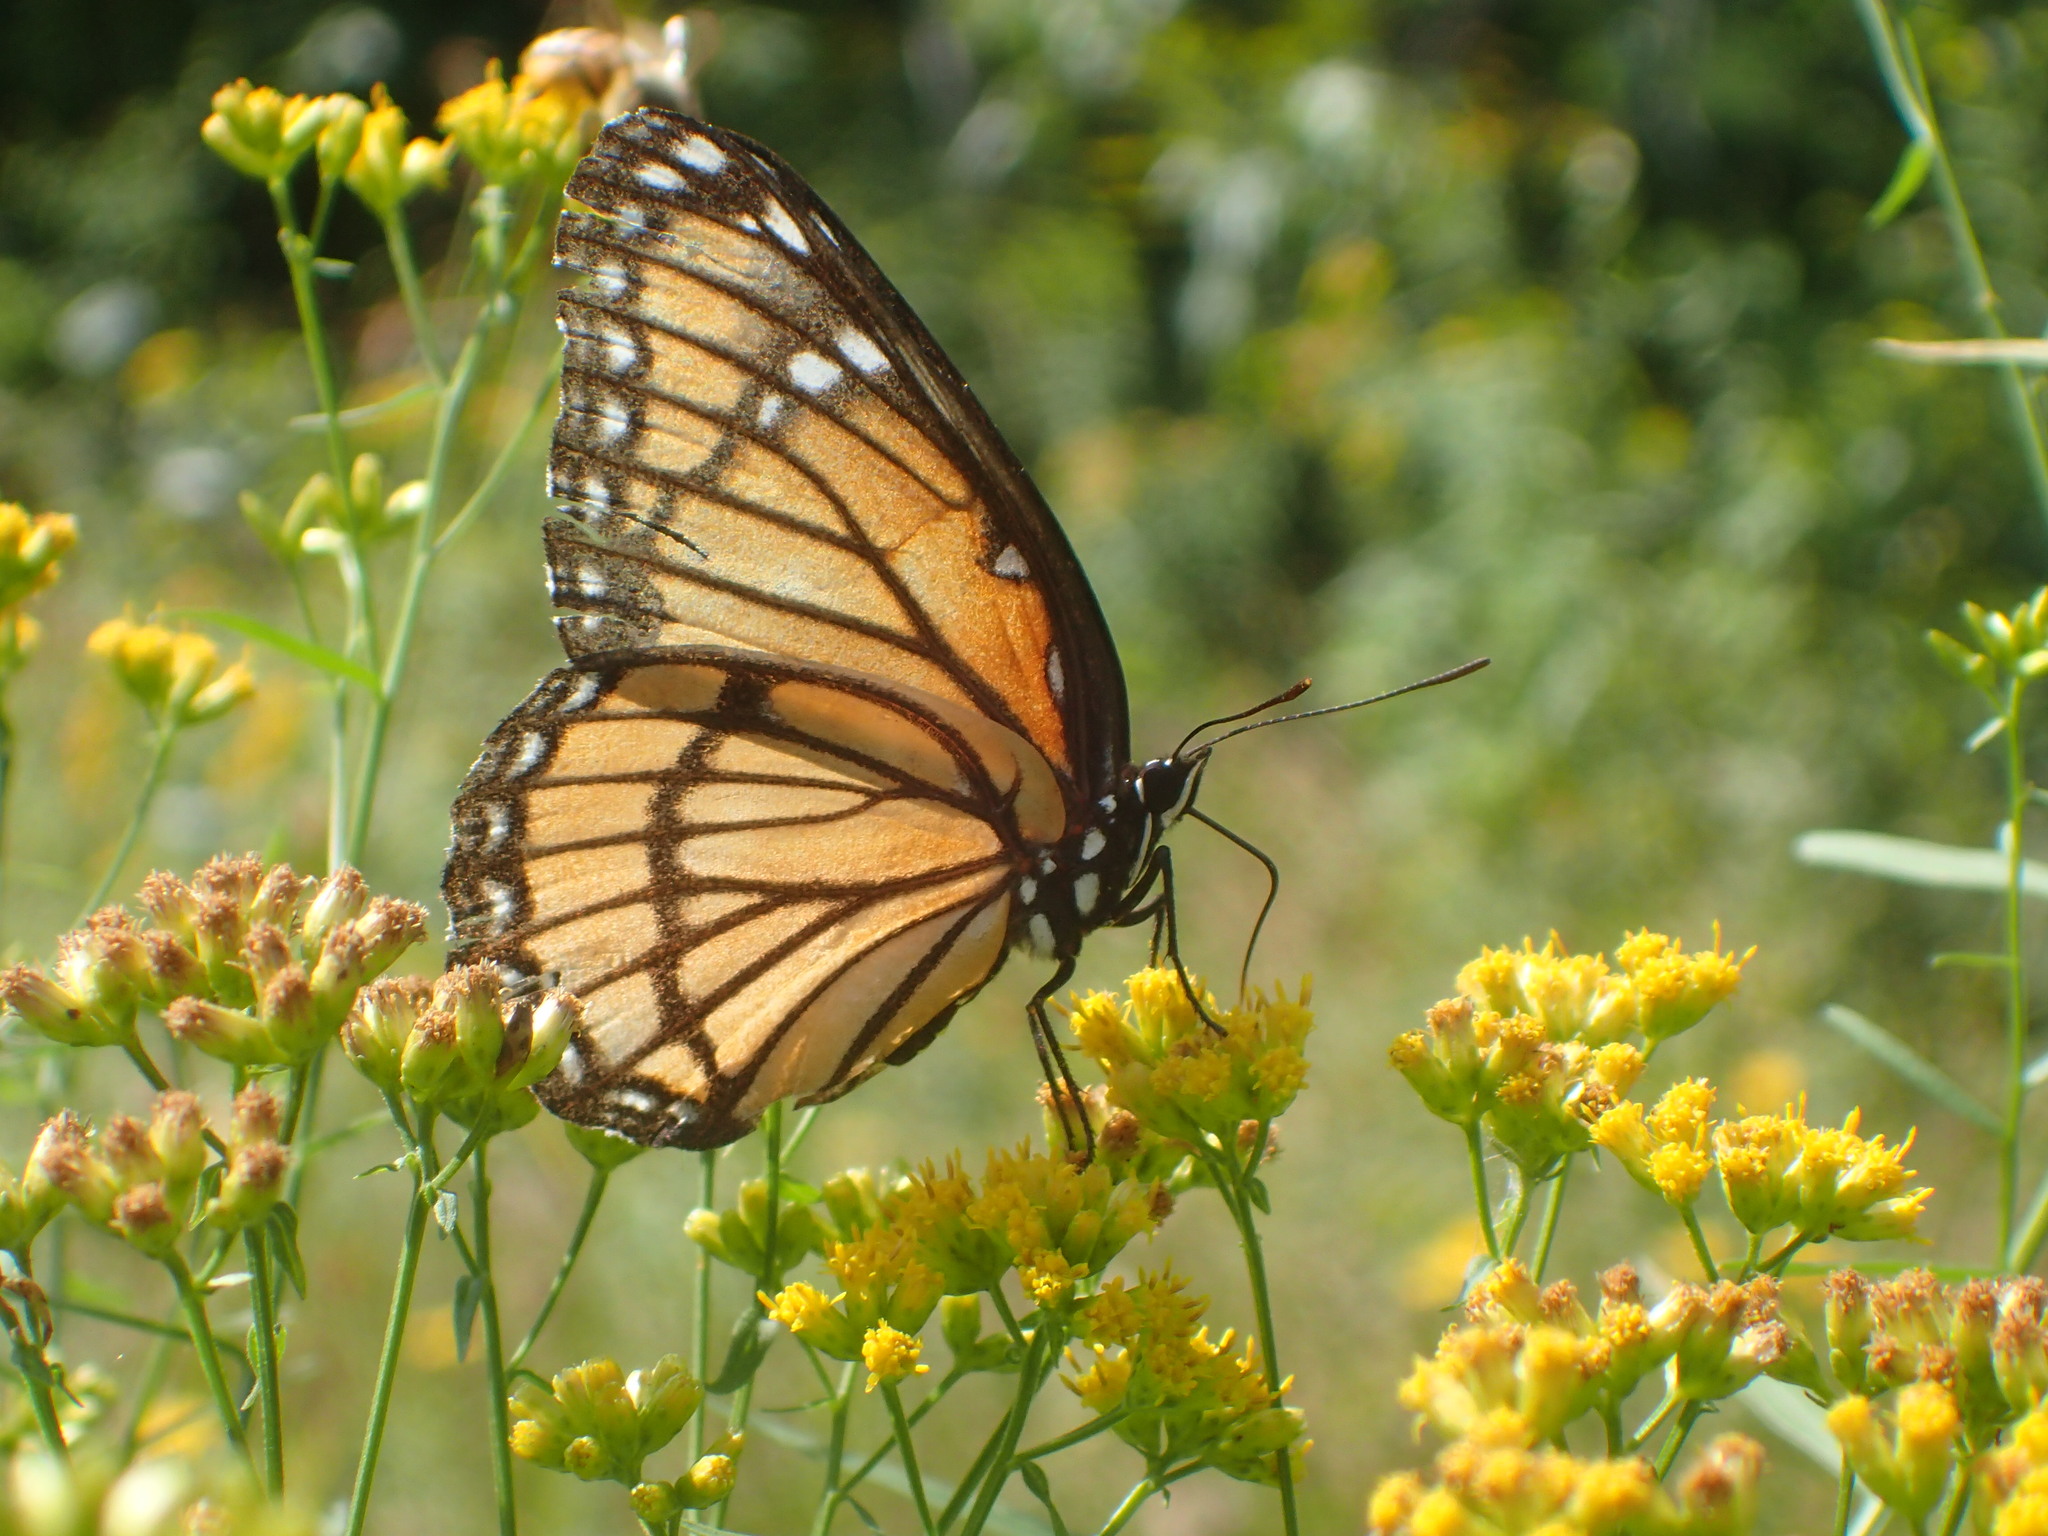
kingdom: Animalia
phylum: Arthropoda
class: Insecta
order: Lepidoptera
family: Nymphalidae
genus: Limenitis
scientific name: Limenitis archippus
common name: Viceroy
